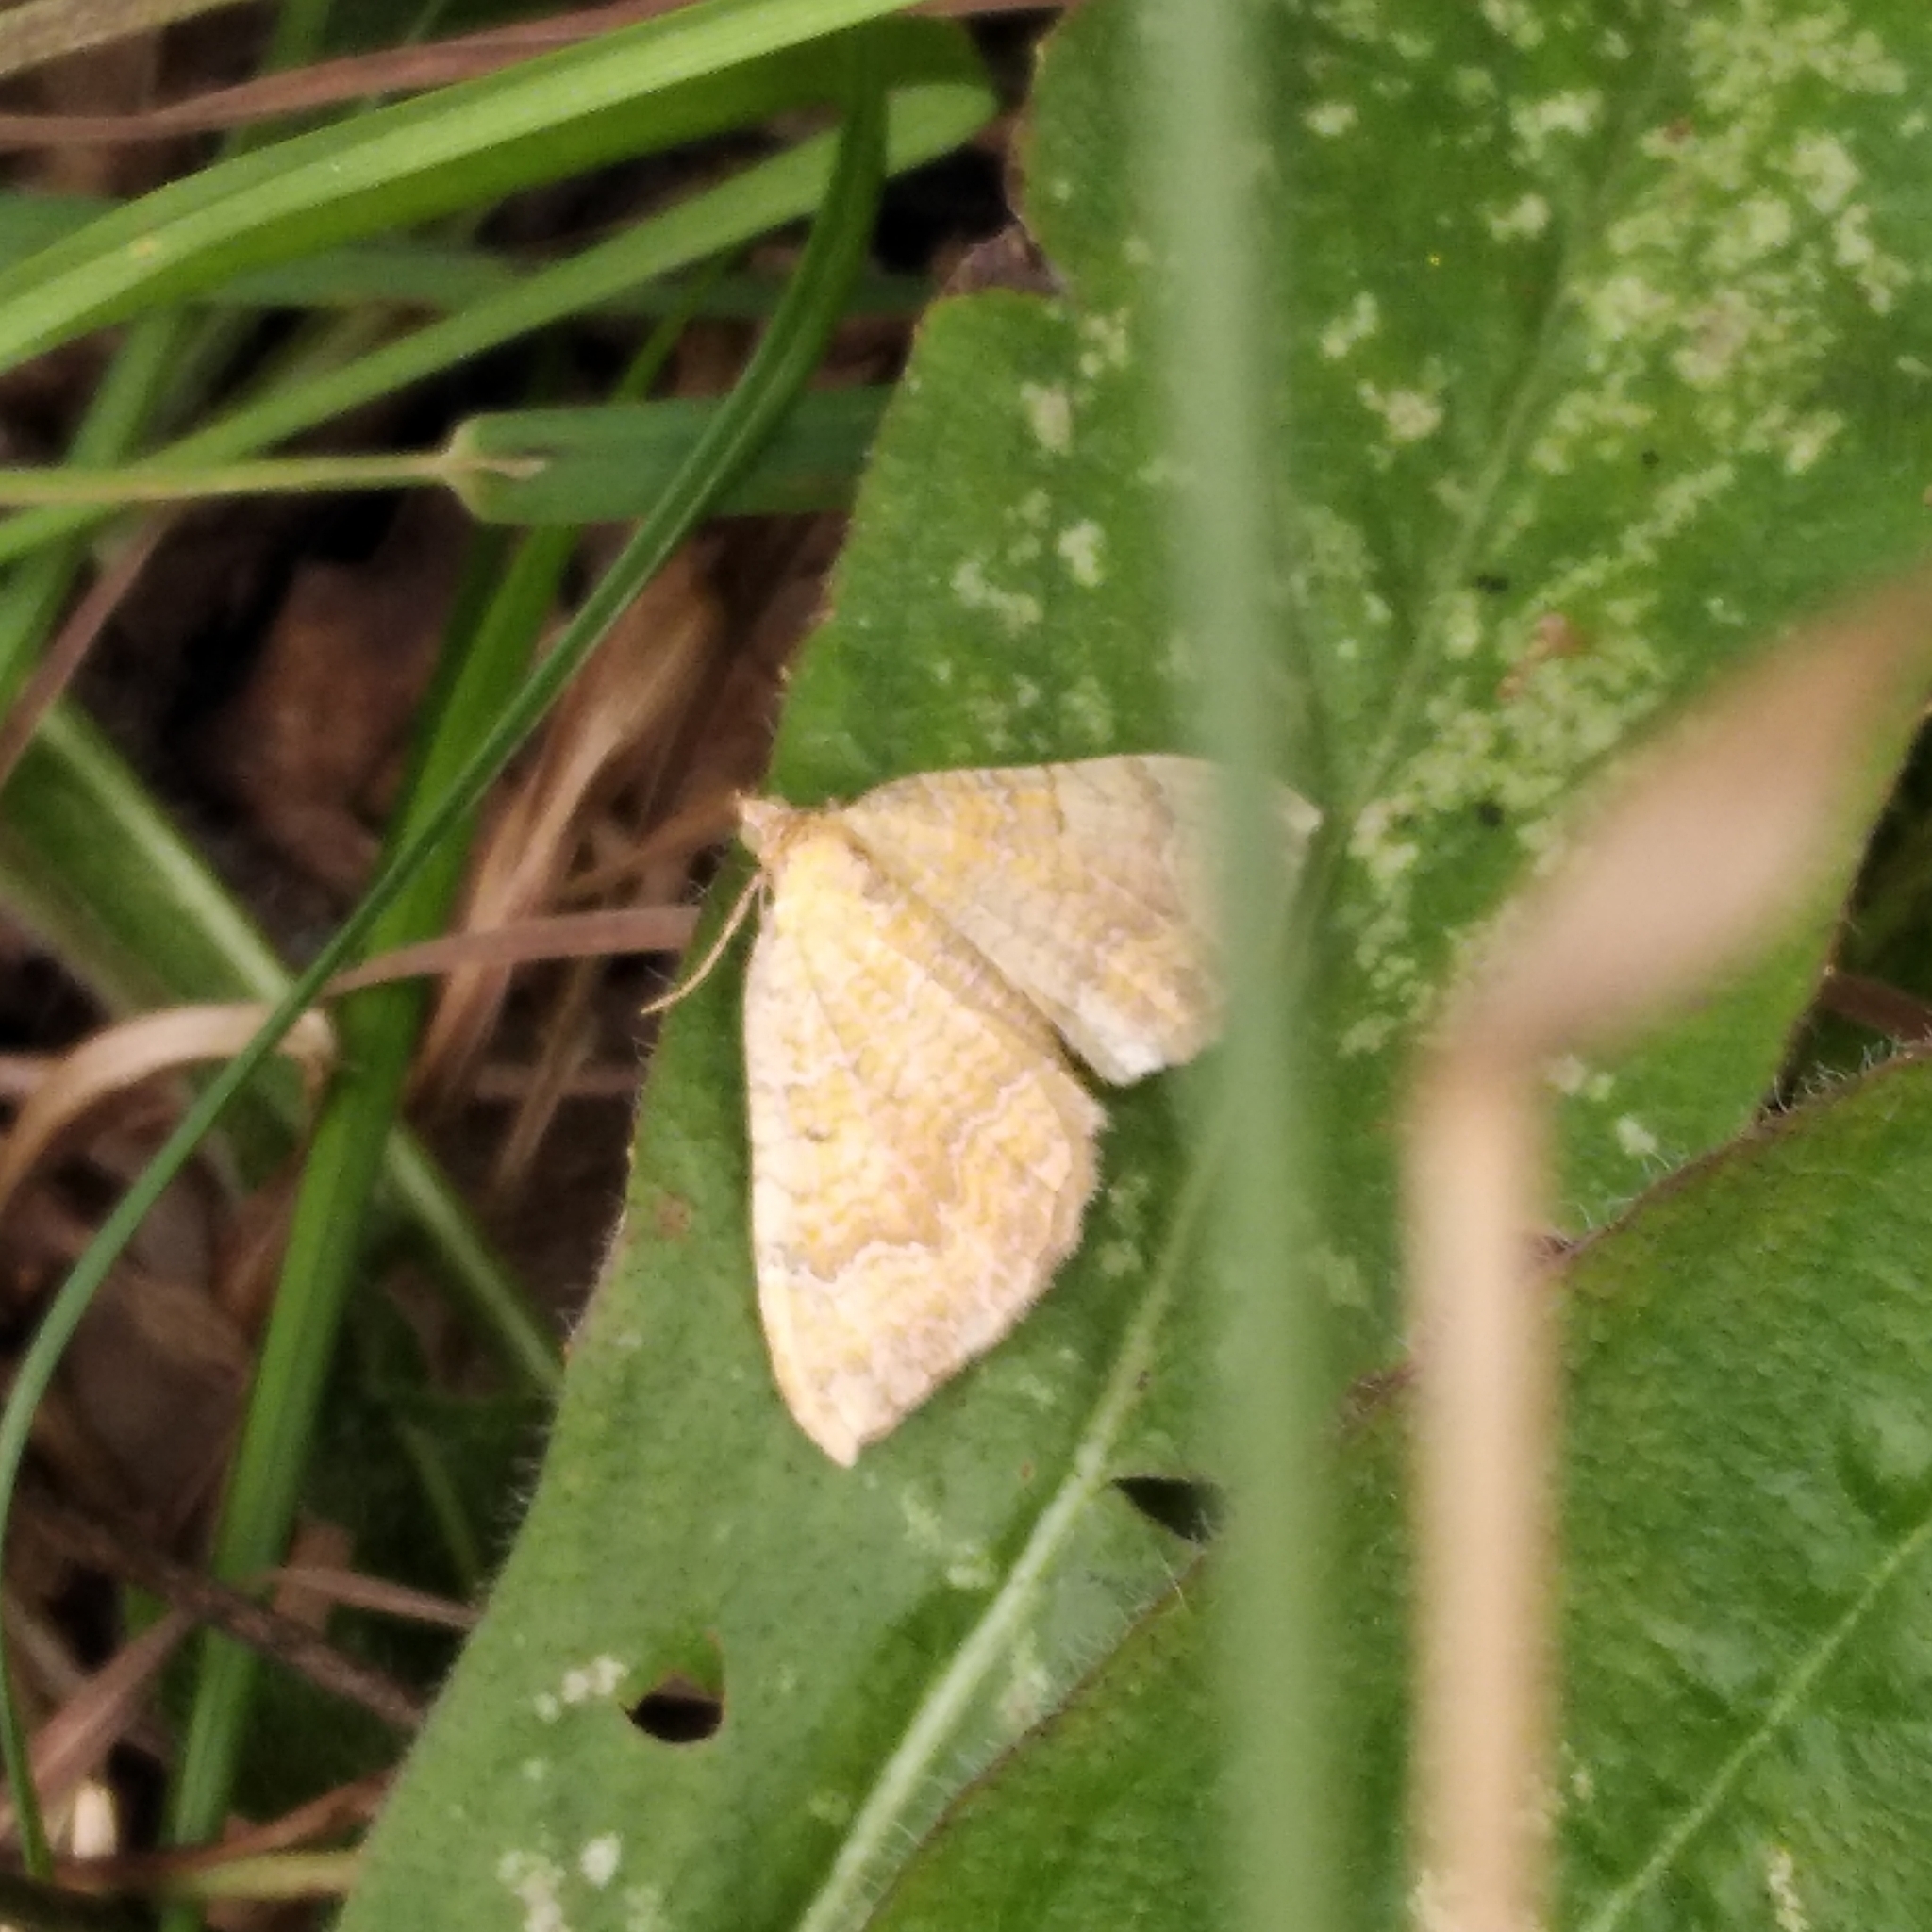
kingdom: Animalia
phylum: Arthropoda
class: Insecta
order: Lepidoptera
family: Geometridae
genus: Camptogramma
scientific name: Camptogramma bilineata
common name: Yellow shell
